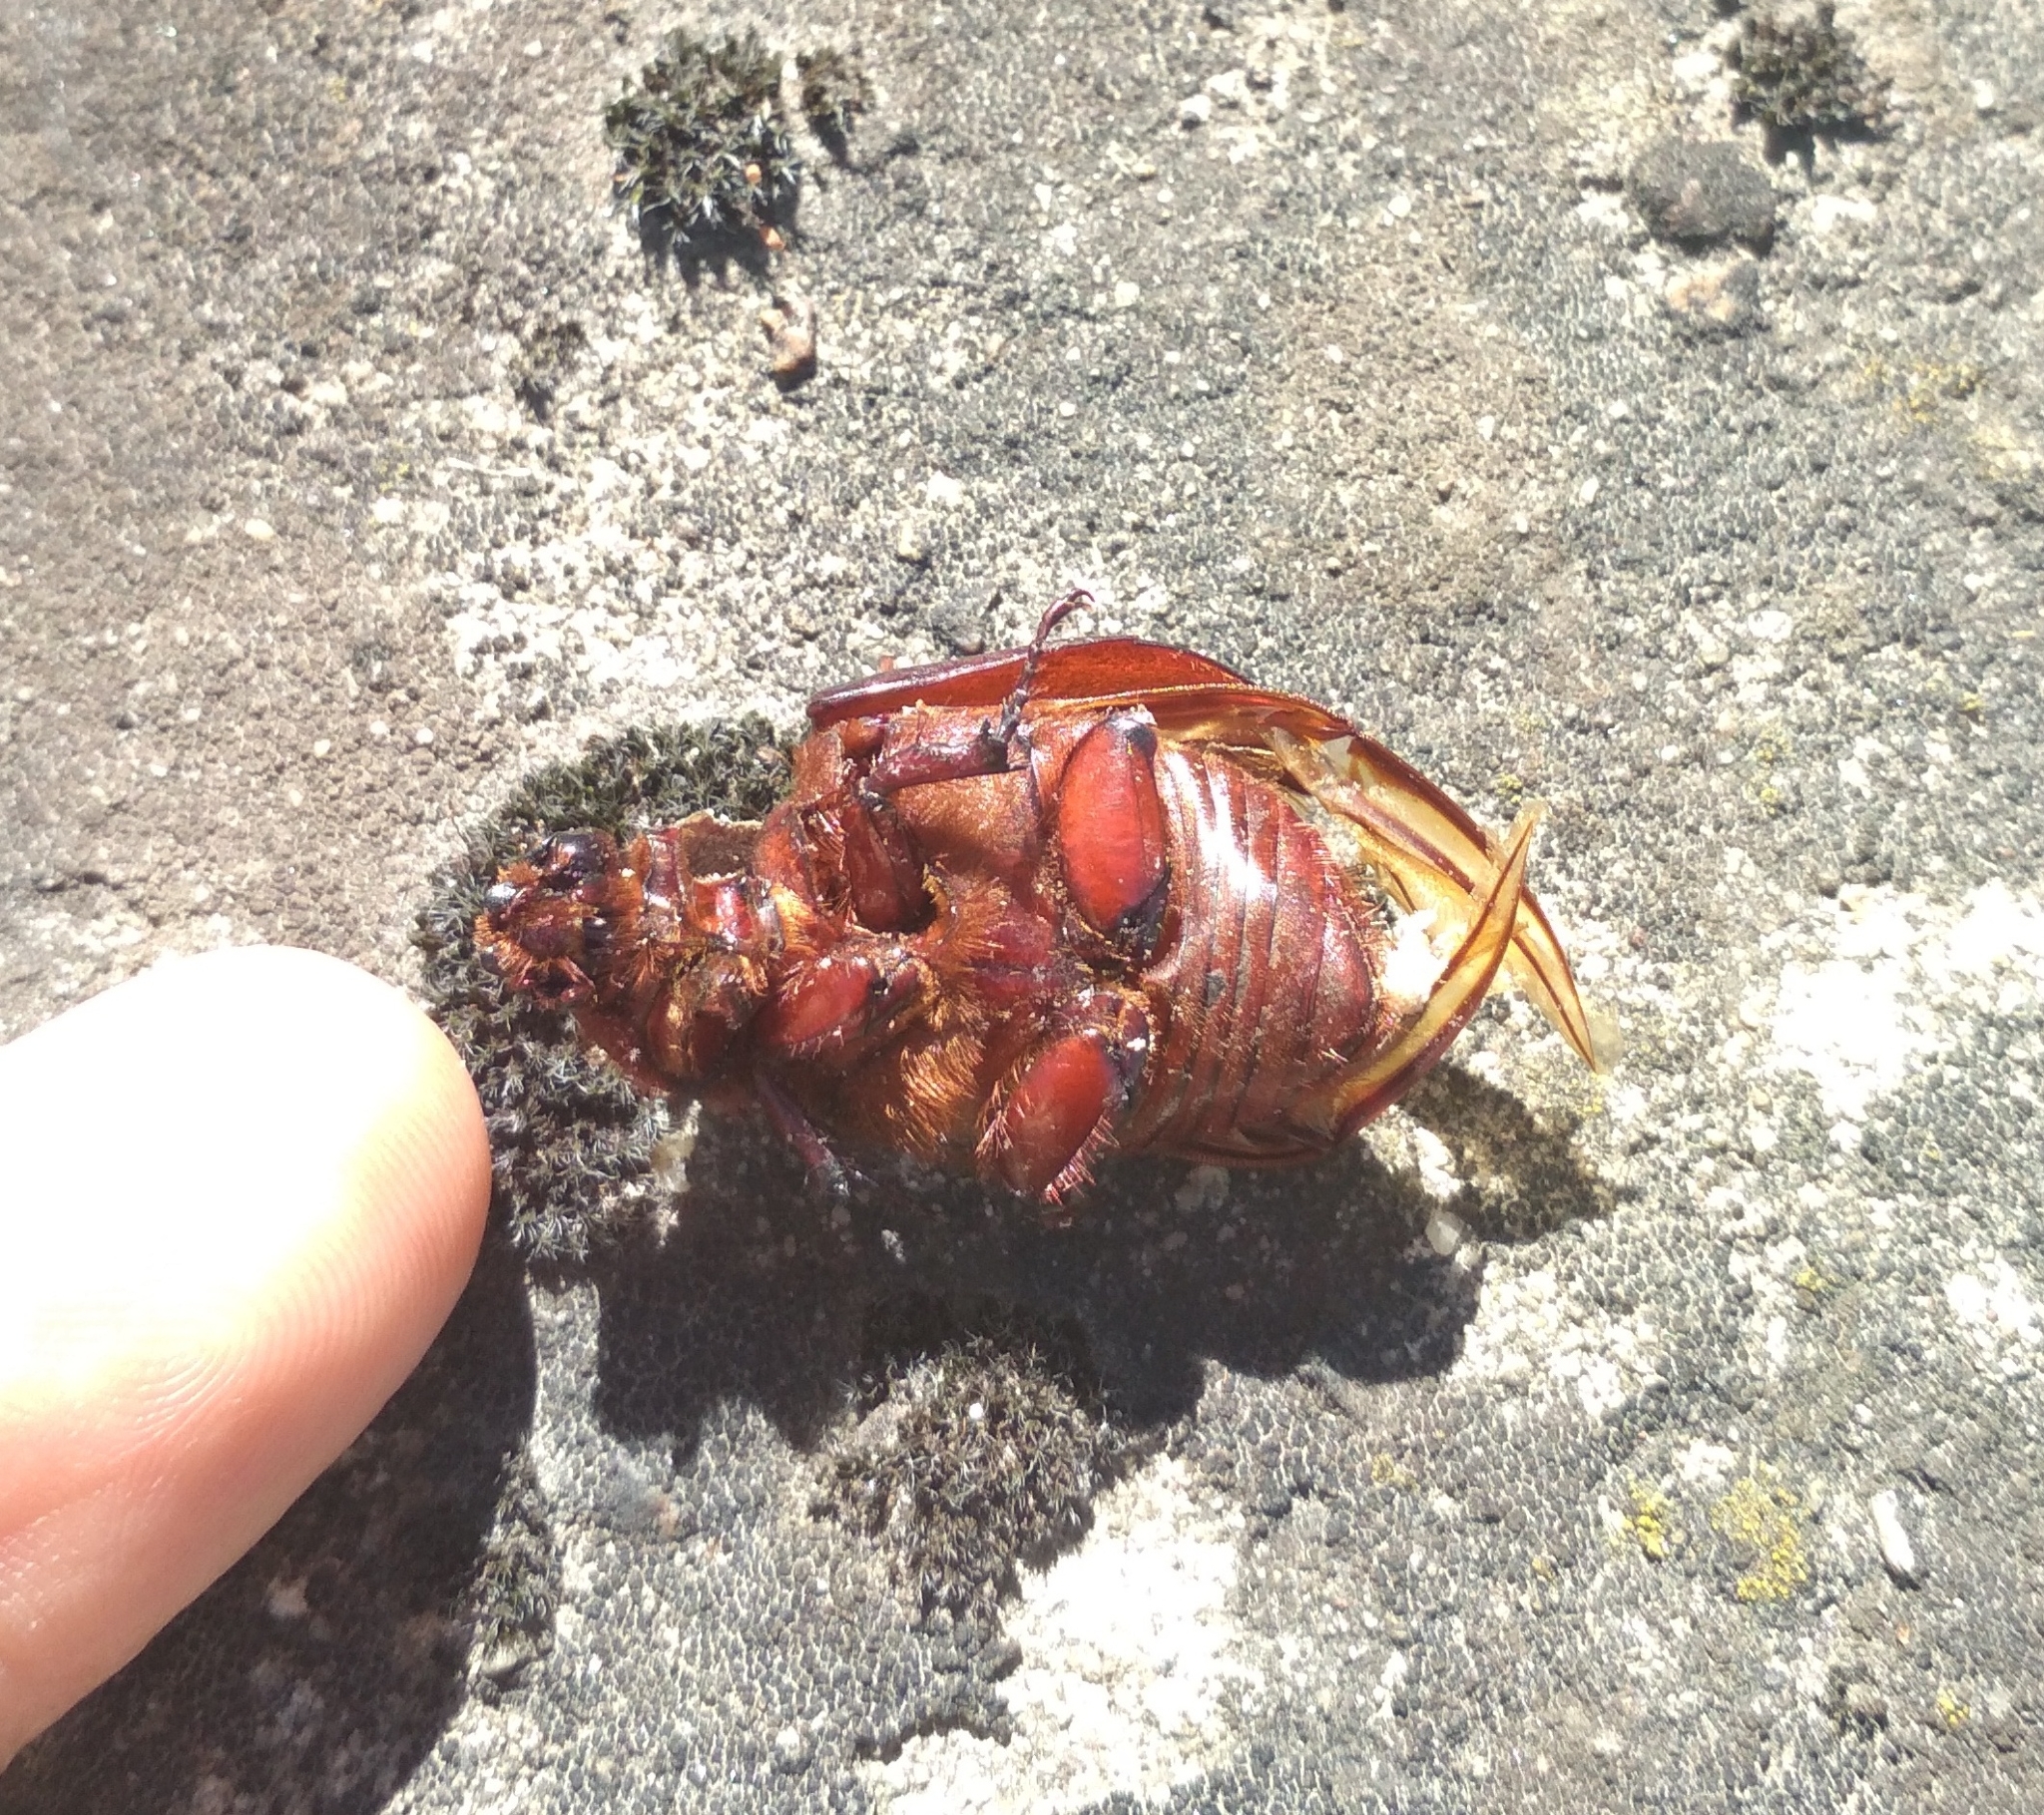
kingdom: Animalia
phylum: Arthropoda
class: Insecta
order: Coleoptera
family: Scarabaeidae
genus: Oryctes
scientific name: Oryctes nasicornis
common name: European rhinoceros beetle
